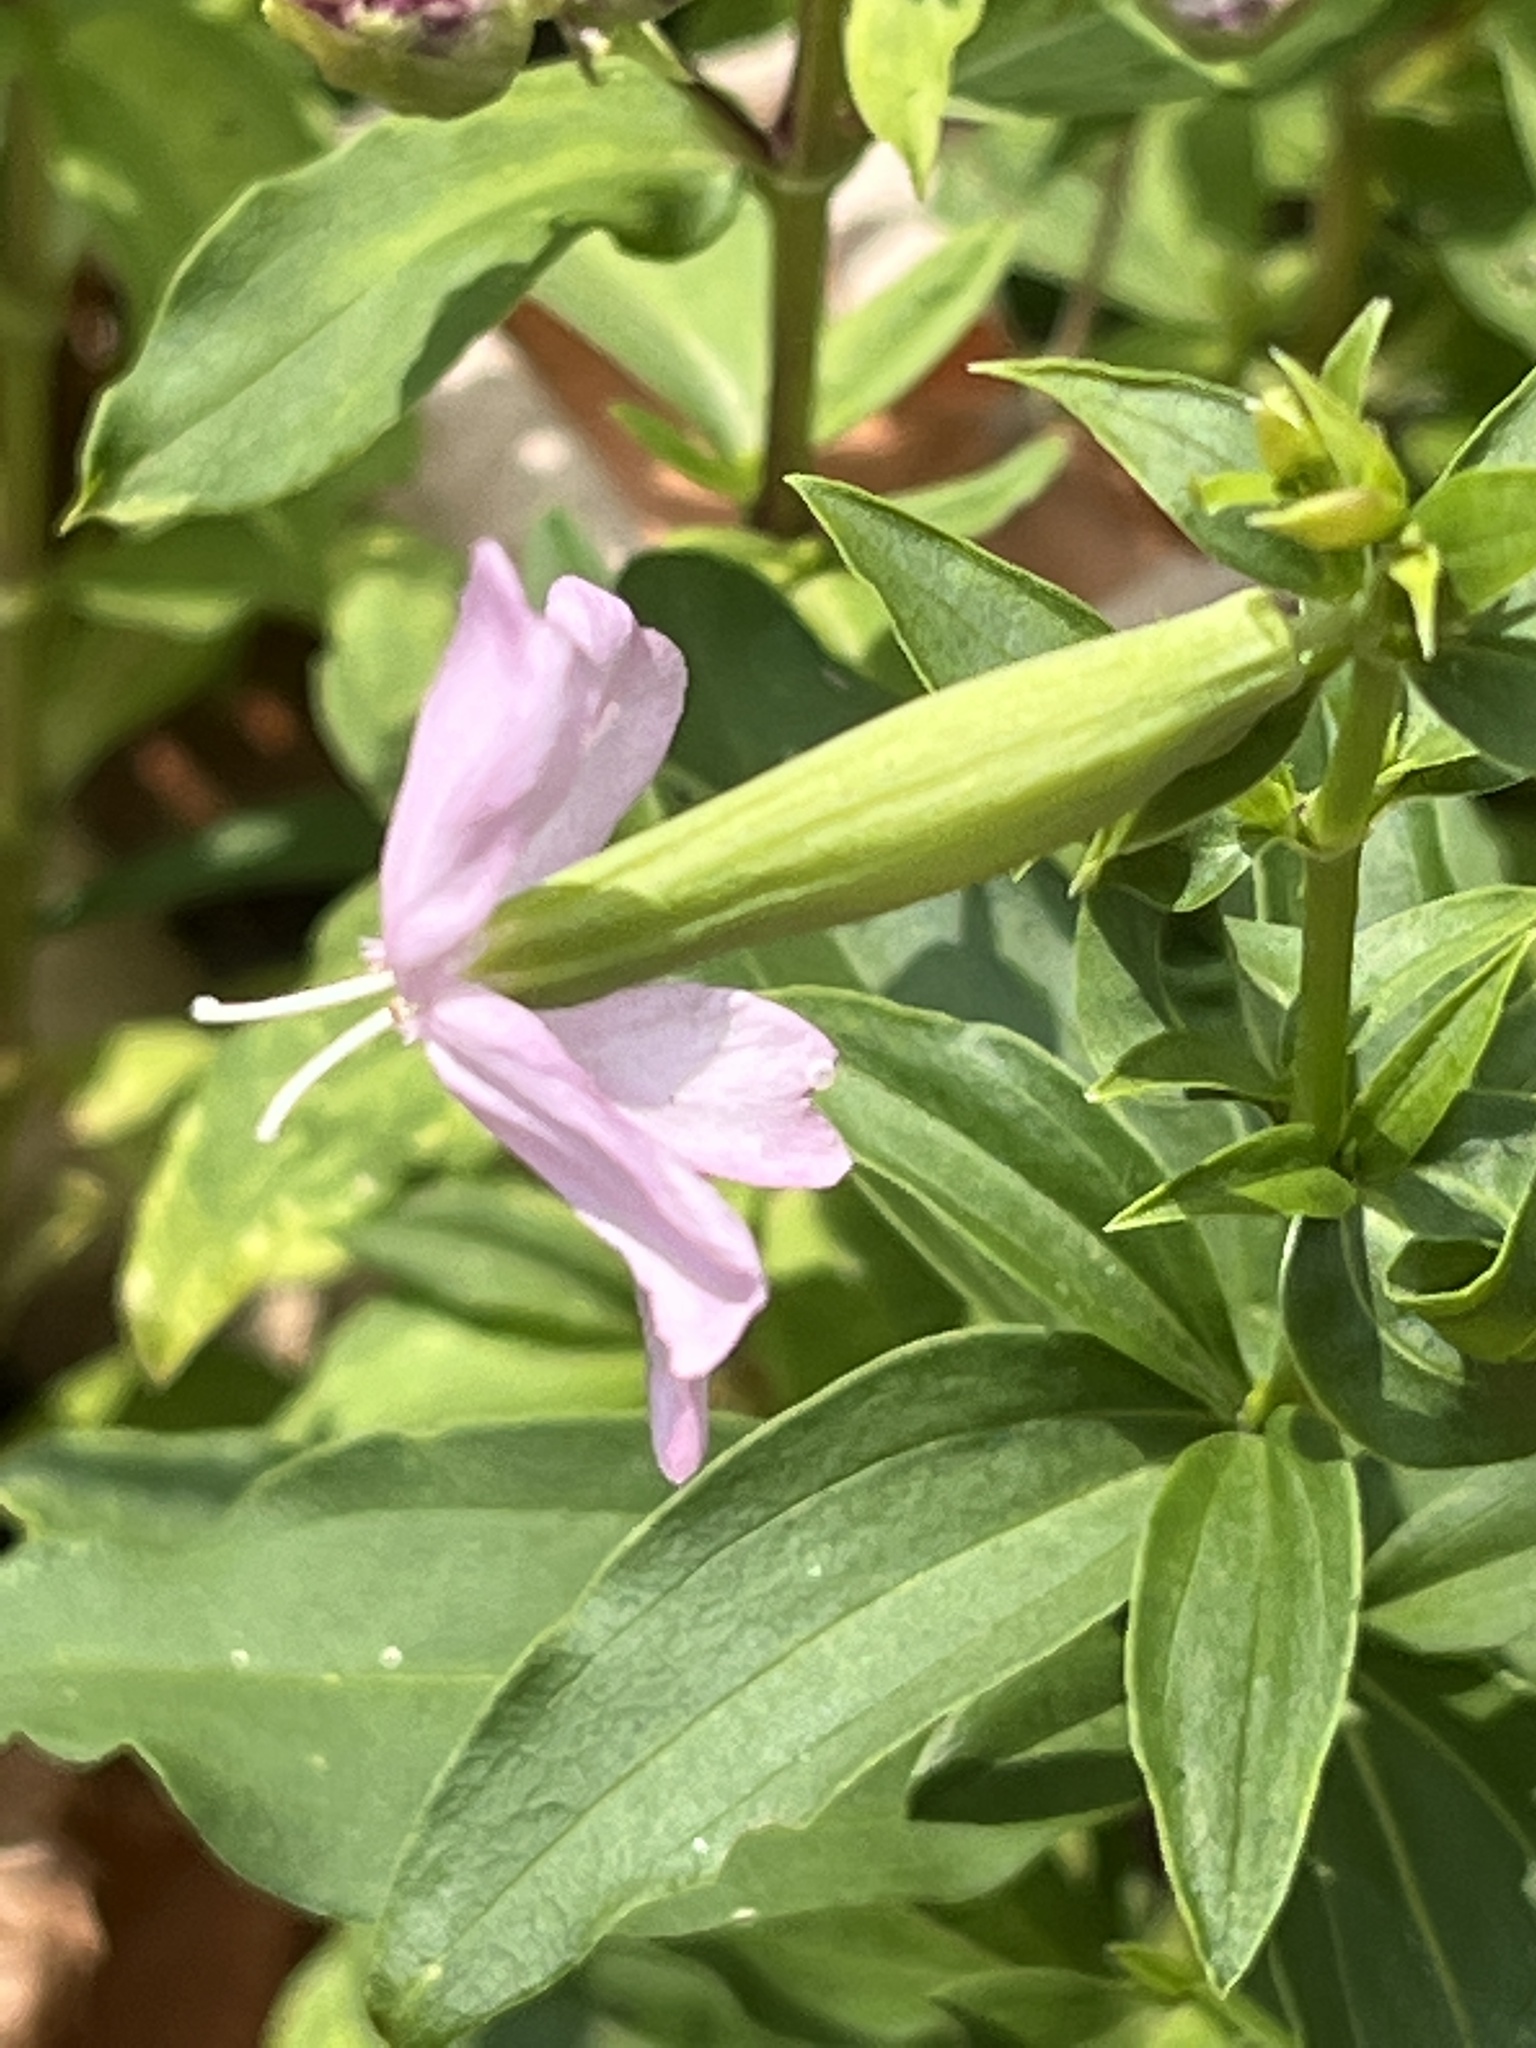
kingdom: Plantae
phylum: Tracheophyta
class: Magnoliopsida
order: Caryophyllales
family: Caryophyllaceae
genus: Saponaria
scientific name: Saponaria officinalis
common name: Soapwort
